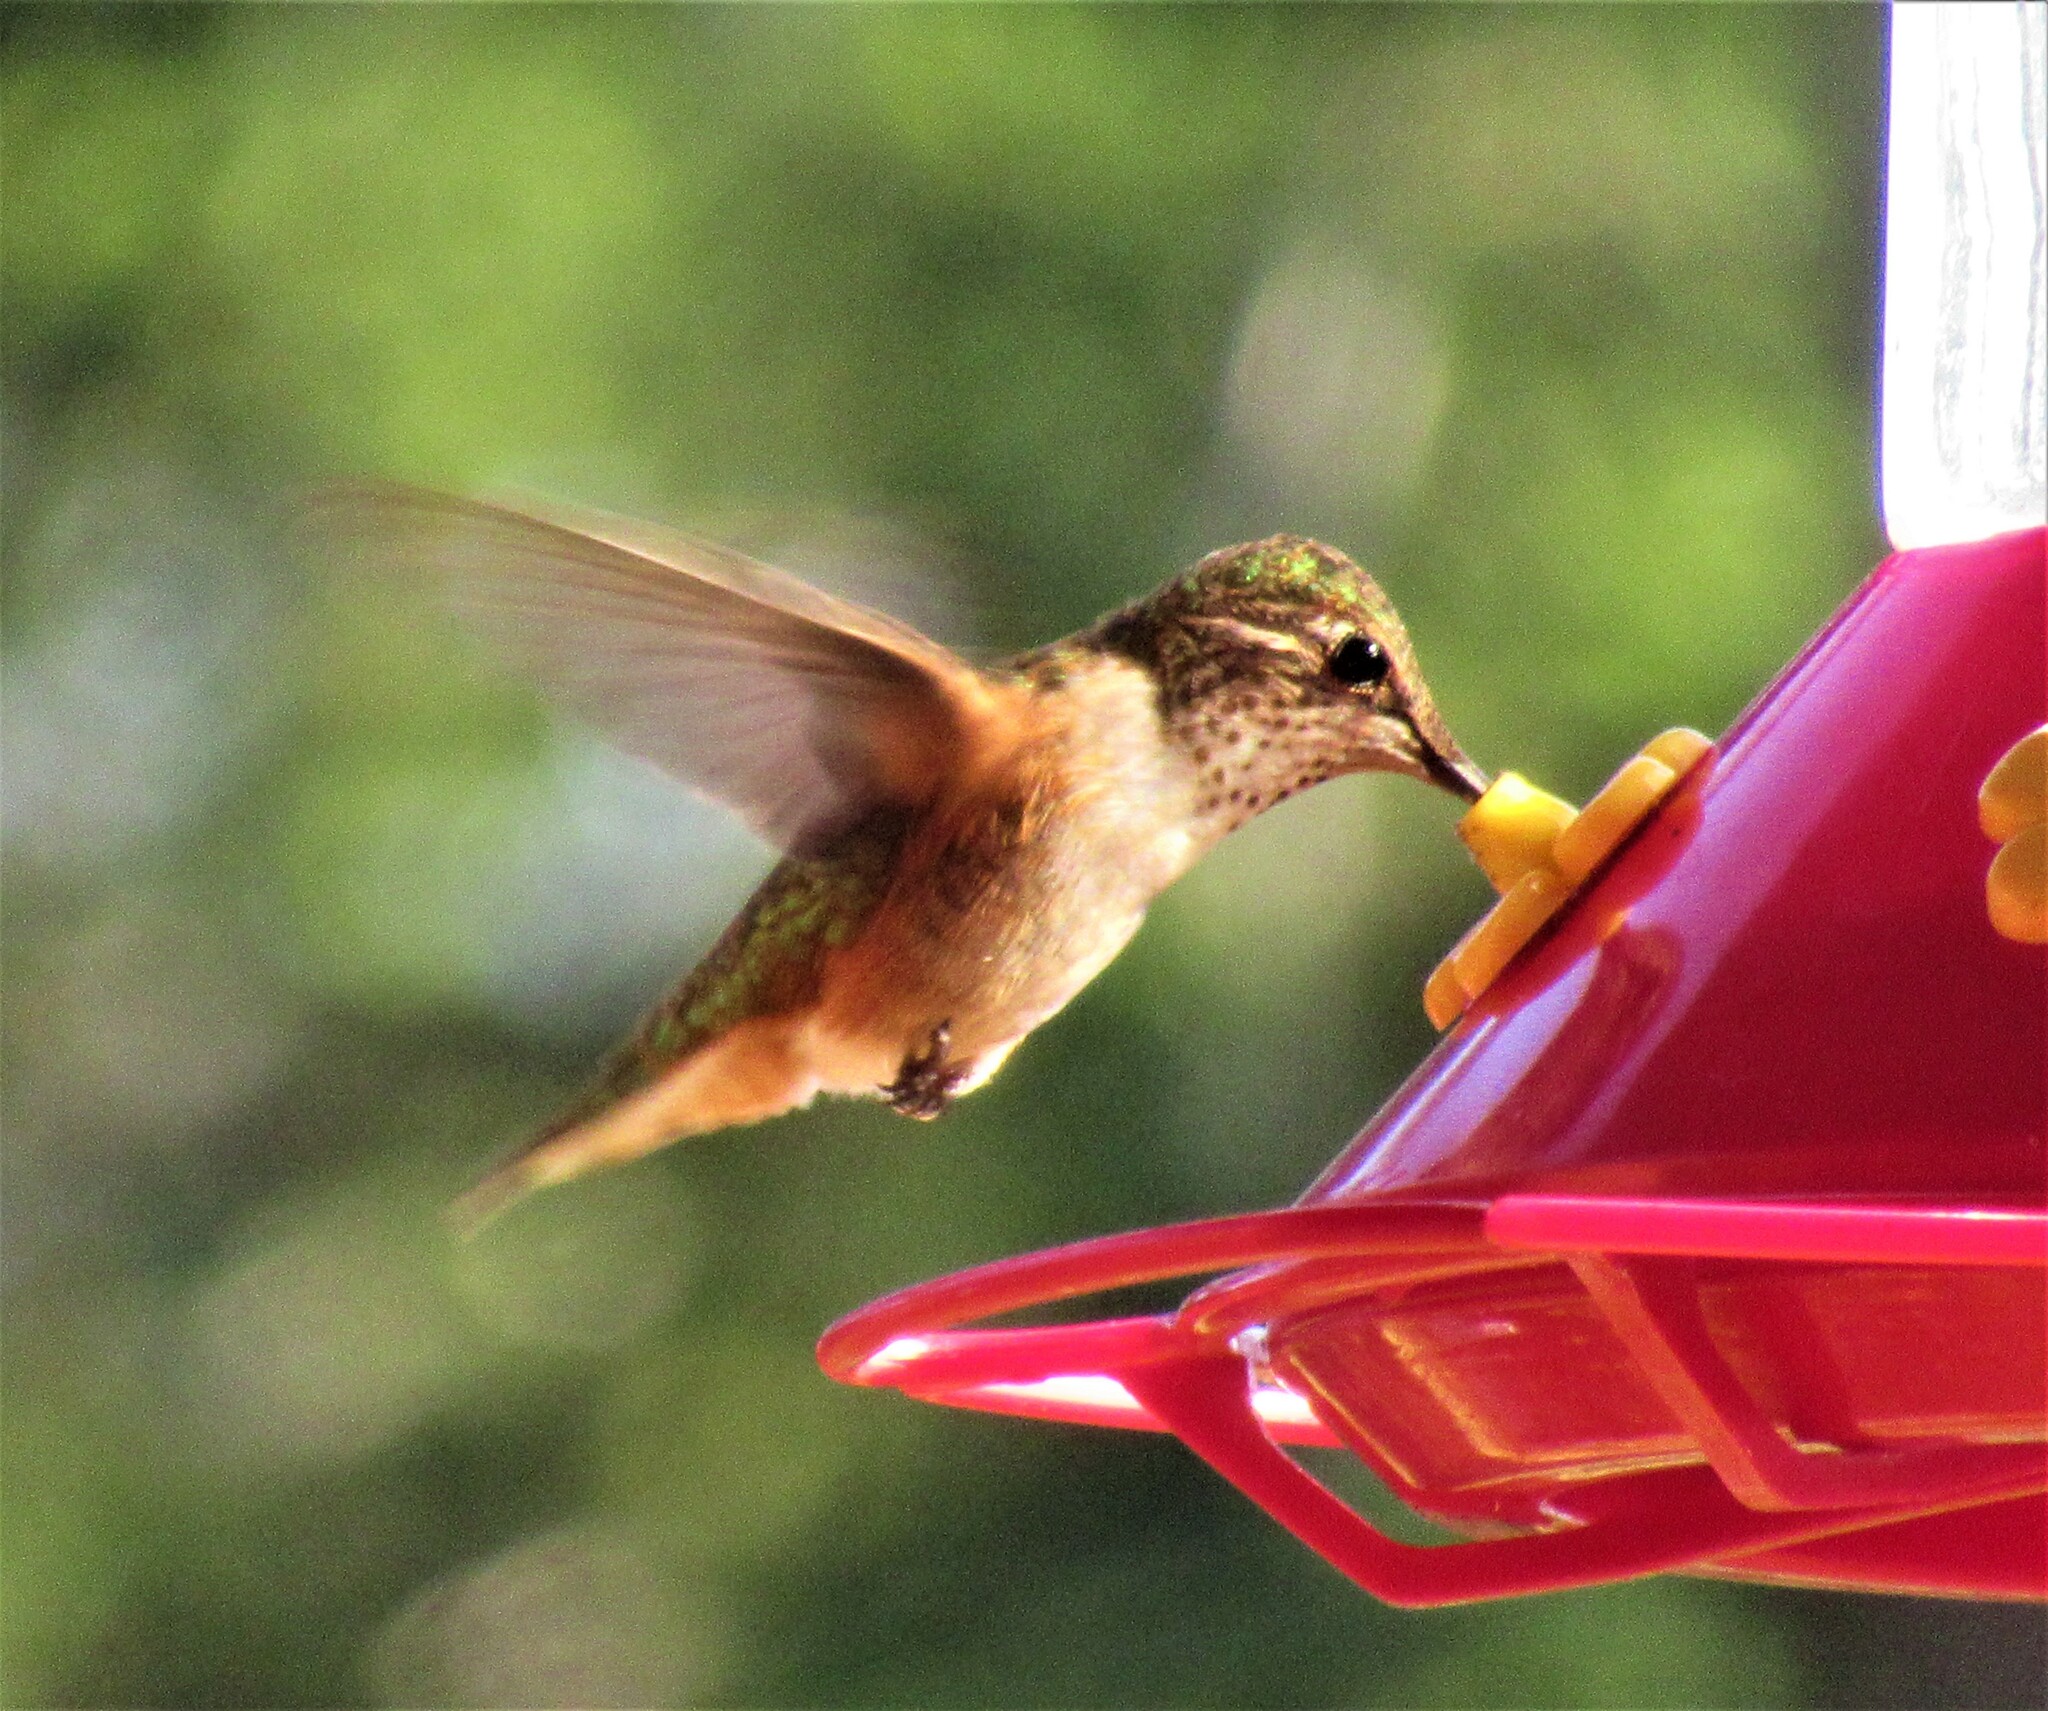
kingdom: Animalia
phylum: Chordata
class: Aves
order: Apodiformes
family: Trochilidae
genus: Selasphorus
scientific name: Selasphorus rufus
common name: Rufous hummingbird
